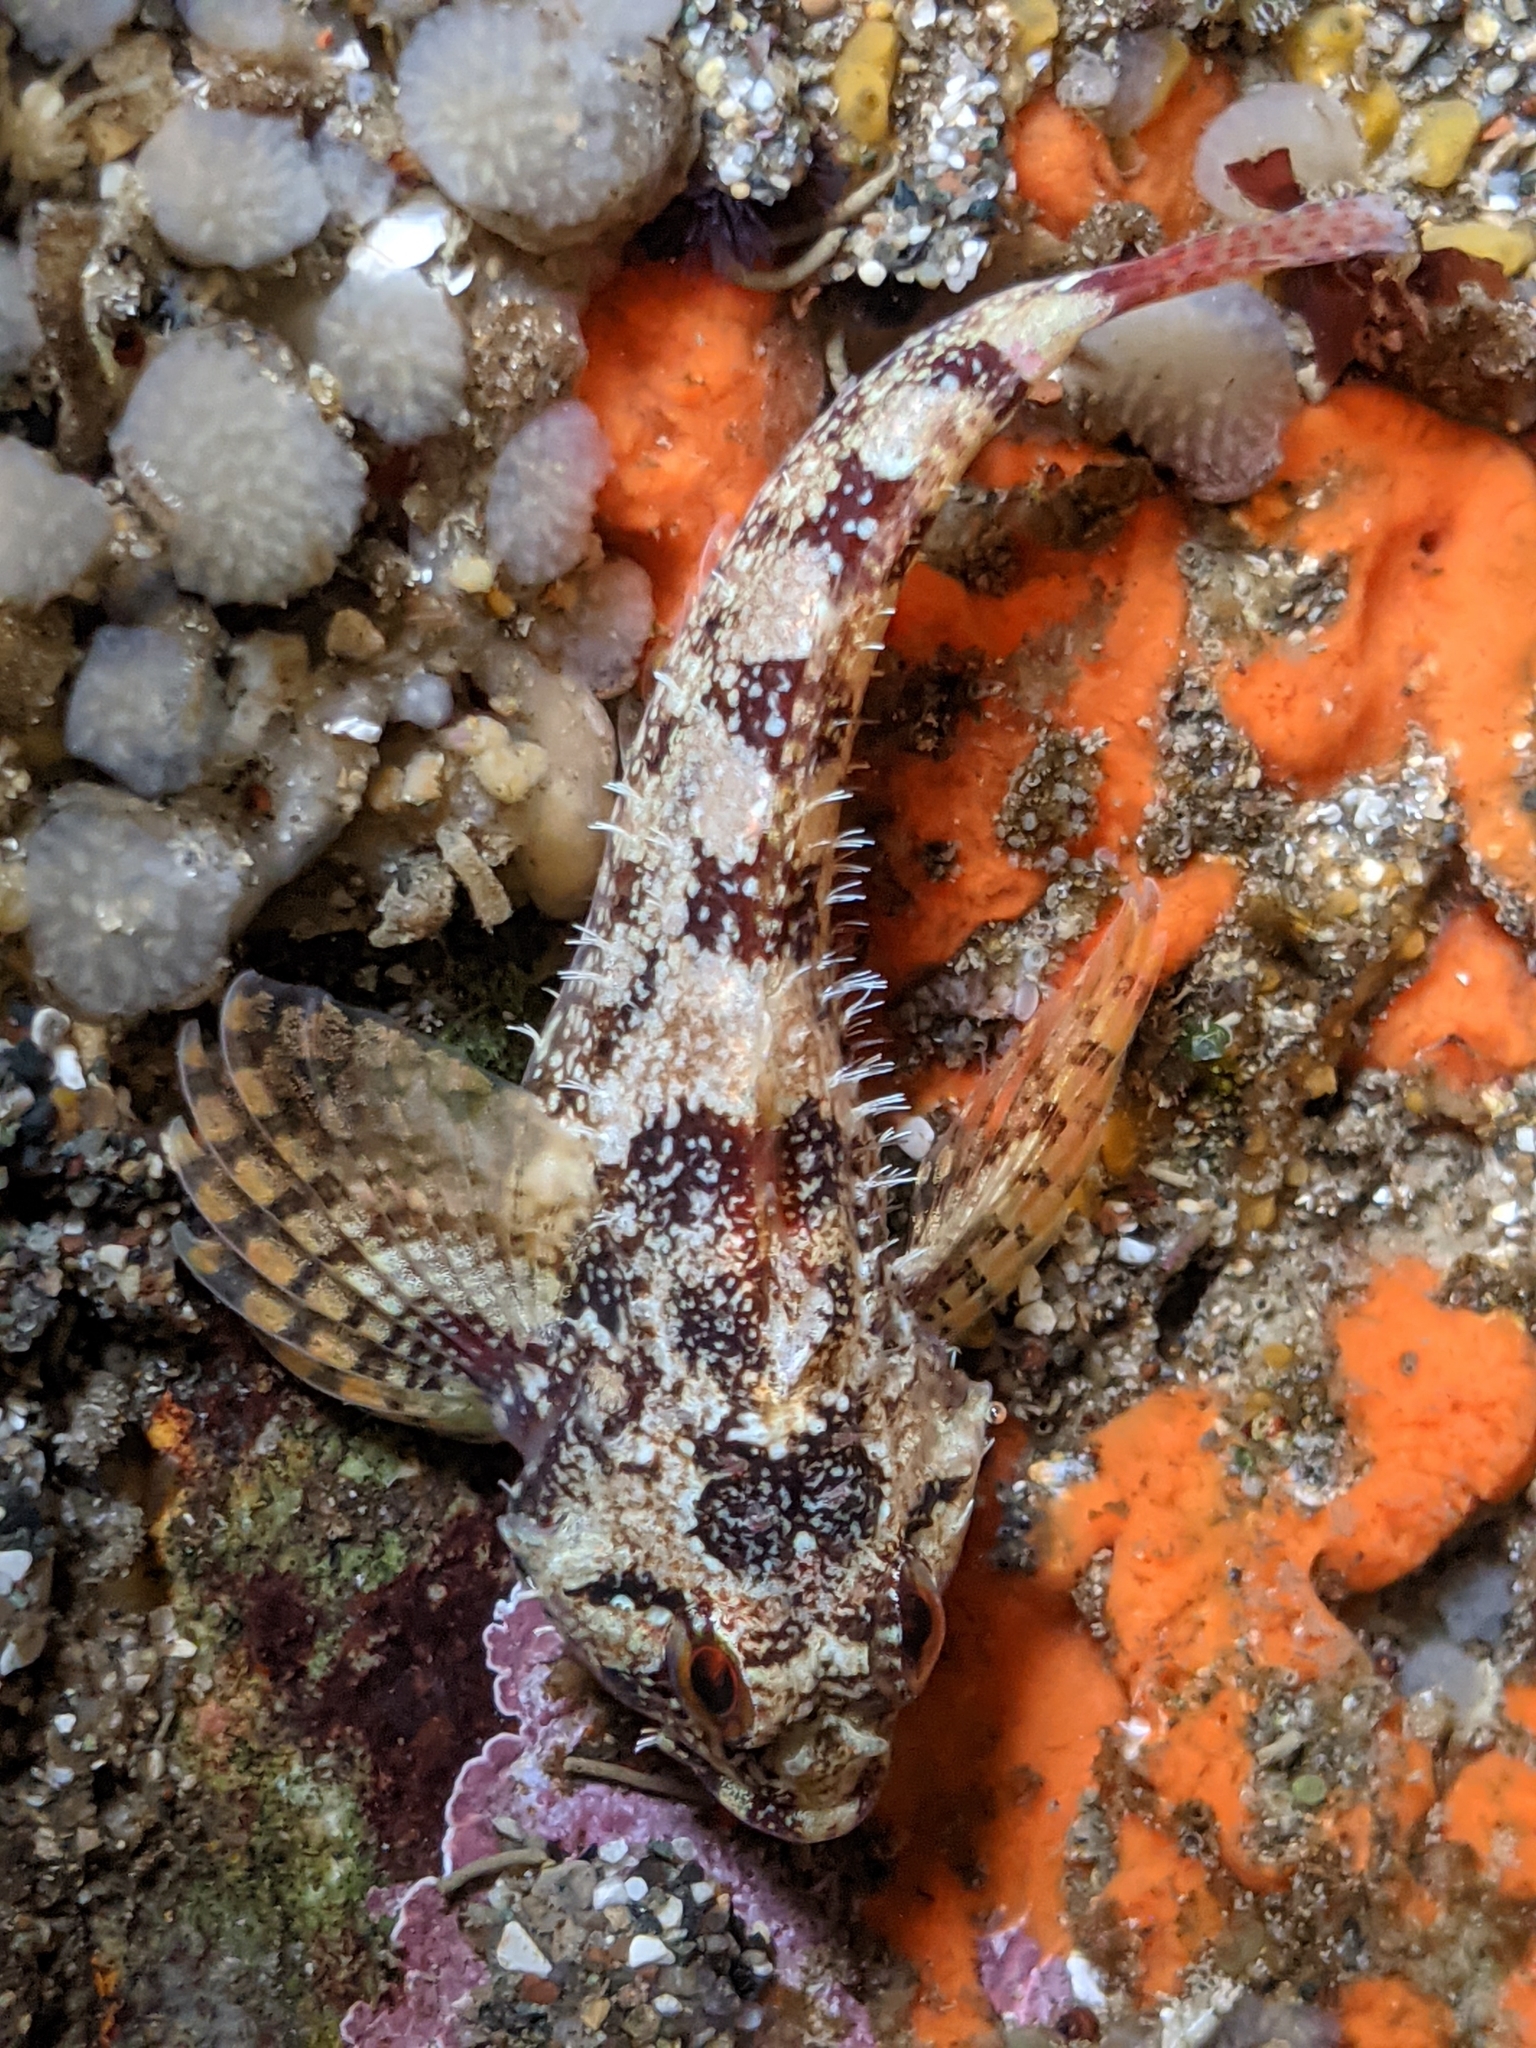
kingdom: Animalia
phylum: Chordata
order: Scorpaeniformes
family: Cottidae
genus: Oligocottus
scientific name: Oligocottus rubellio
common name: Rosy sculpin
